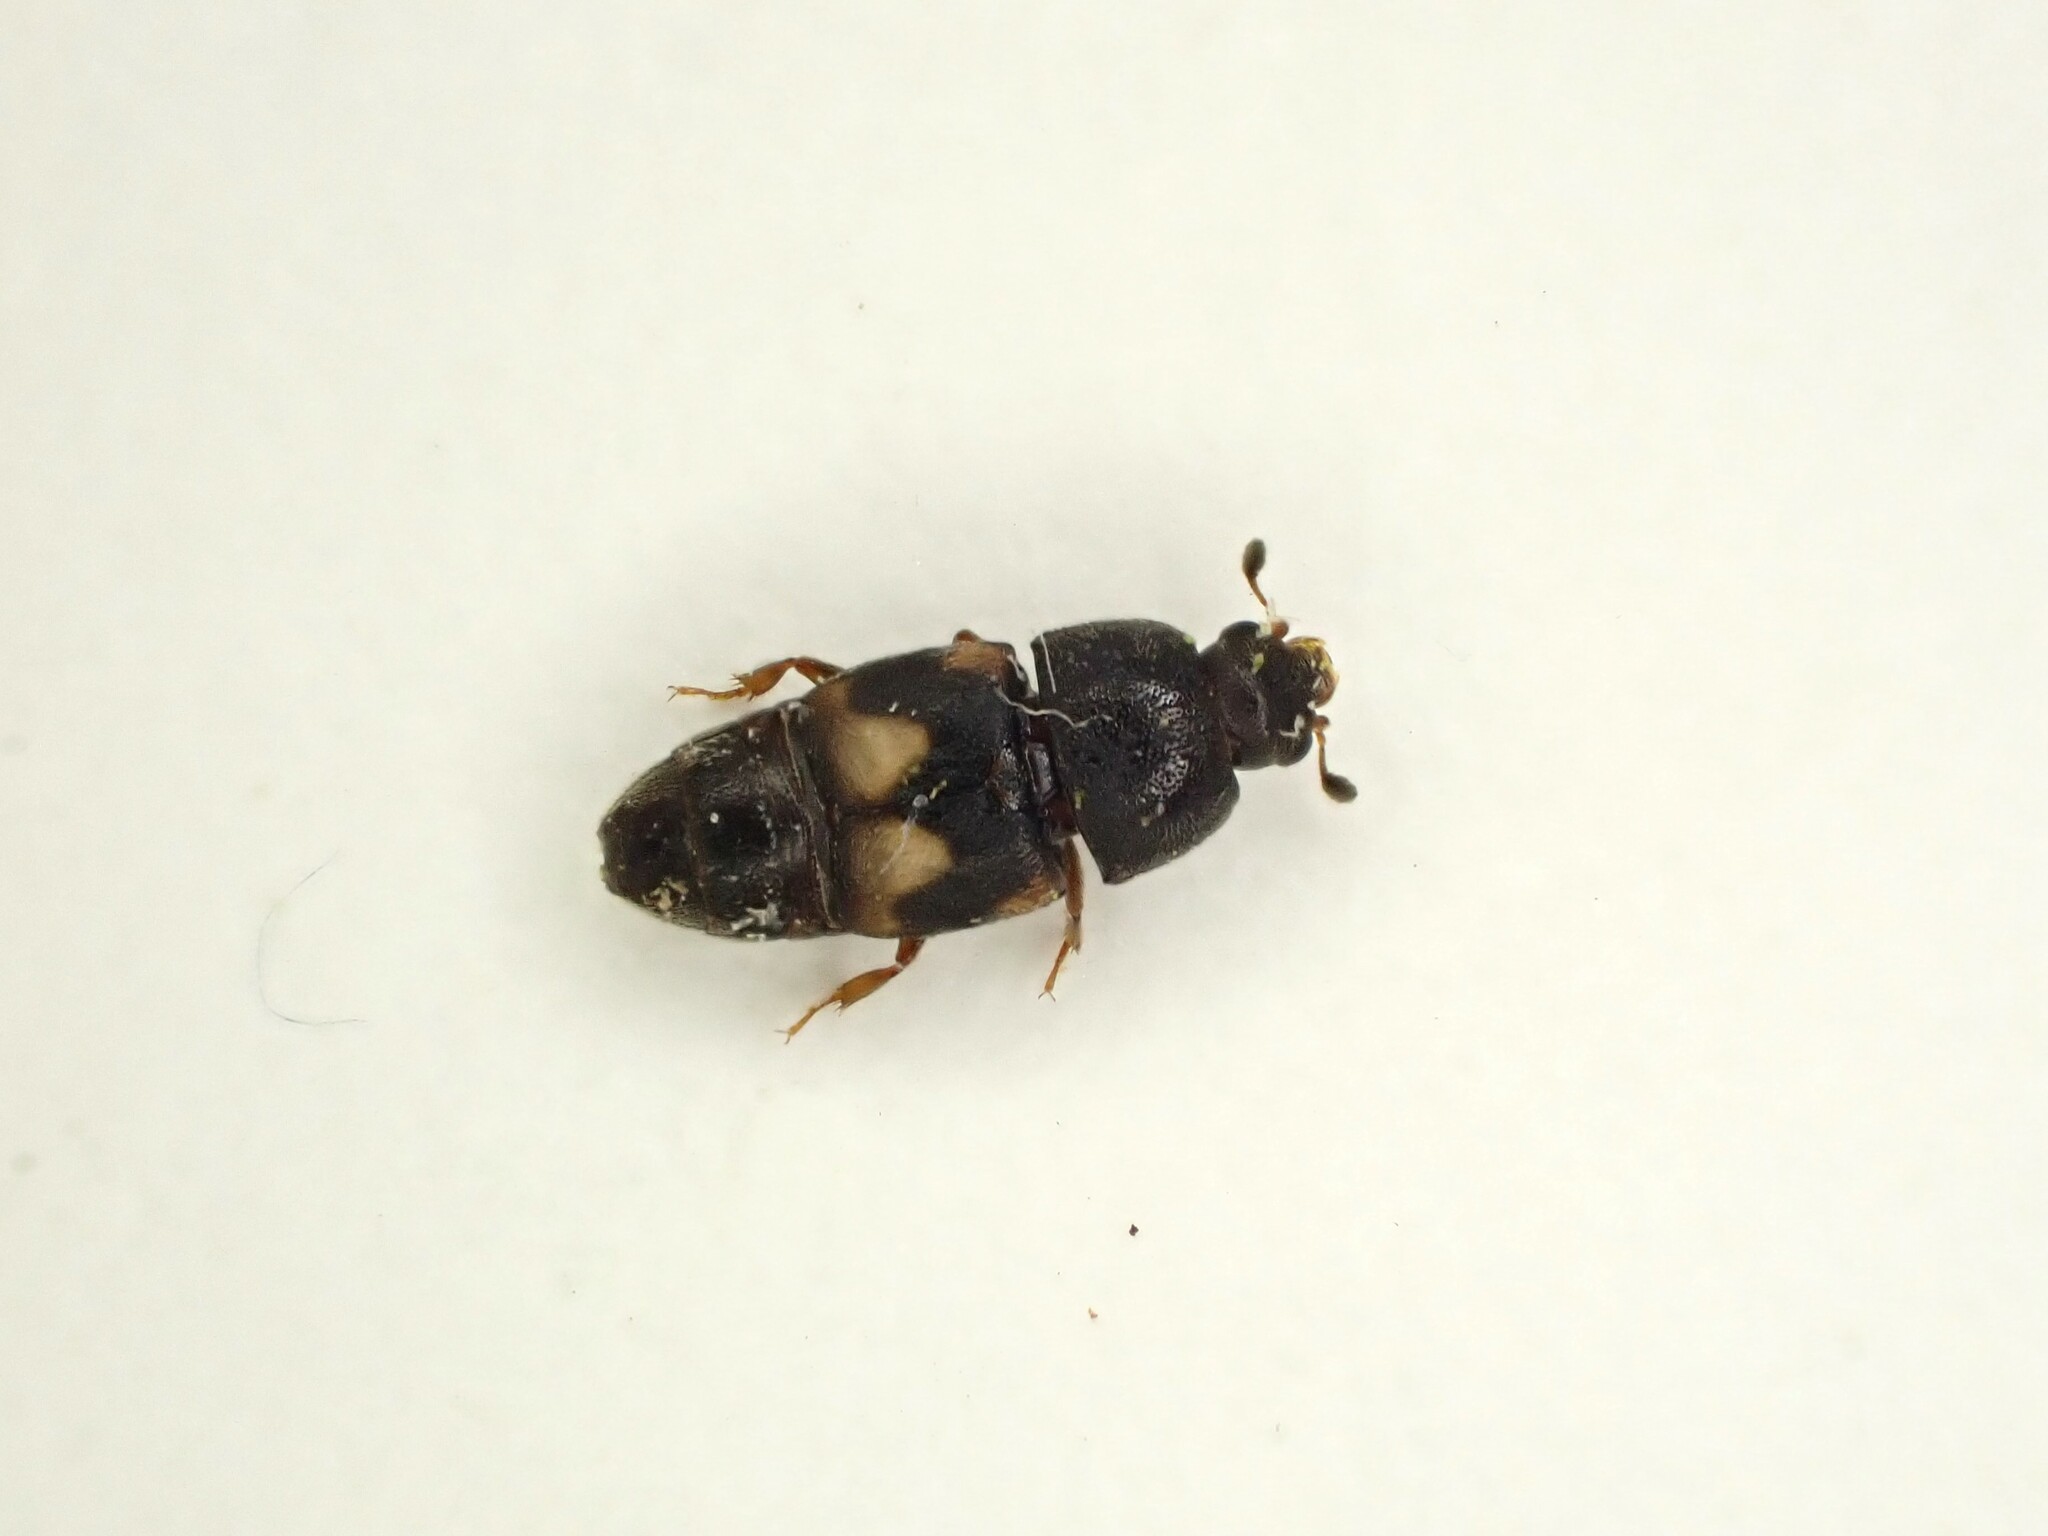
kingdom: Animalia
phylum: Arthropoda
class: Insecta
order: Coleoptera
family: Nitidulidae
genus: Carpophilus
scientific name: Carpophilus hemipterus
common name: Dried fruit beetle
